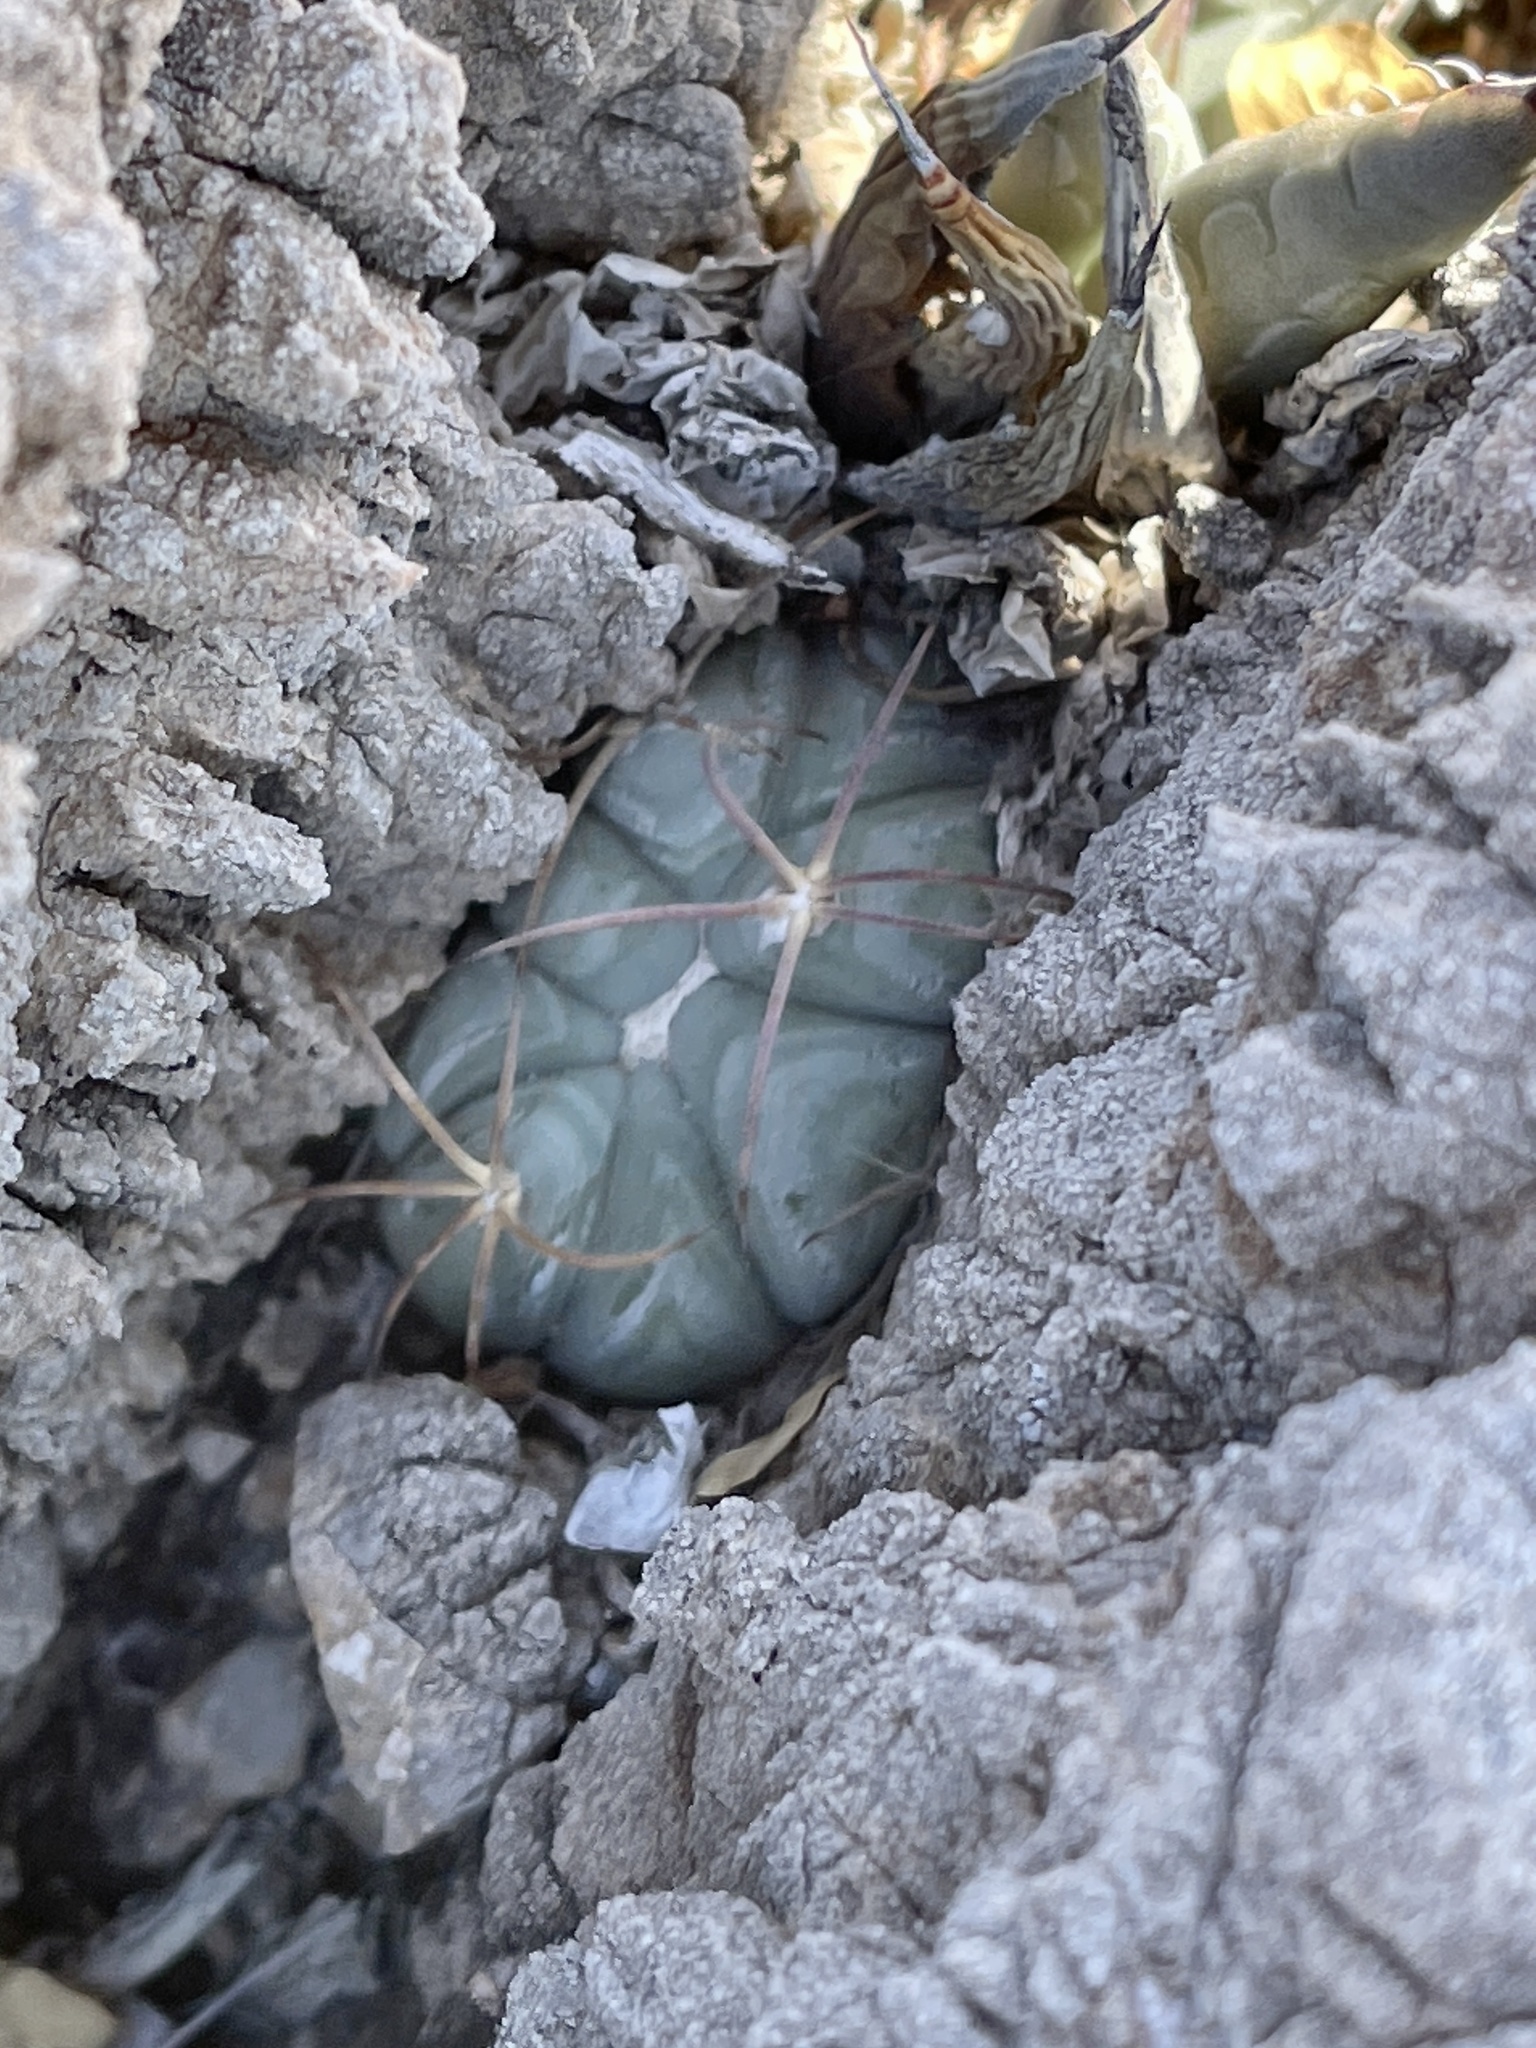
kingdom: Plantae
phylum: Tracheophyta
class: Magnoliopsida
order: Caryophyllales
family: Cactaceae
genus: Echinocactus
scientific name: Echinocactus horizonthalonius
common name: Devilshead
